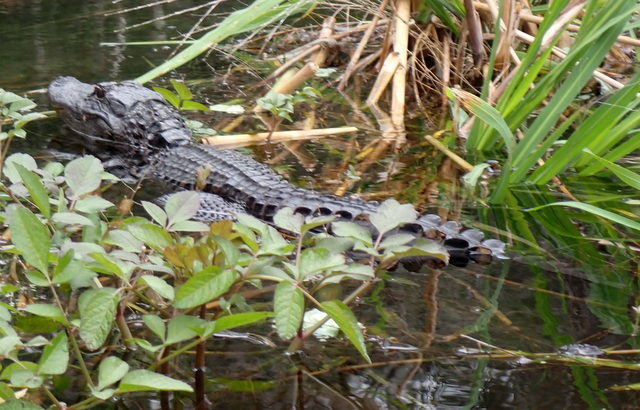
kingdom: Animalia
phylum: Chordata
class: Crocodylia
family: Alligatoridae
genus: Alligator
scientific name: Alligator mississippiensis
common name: American alligator
